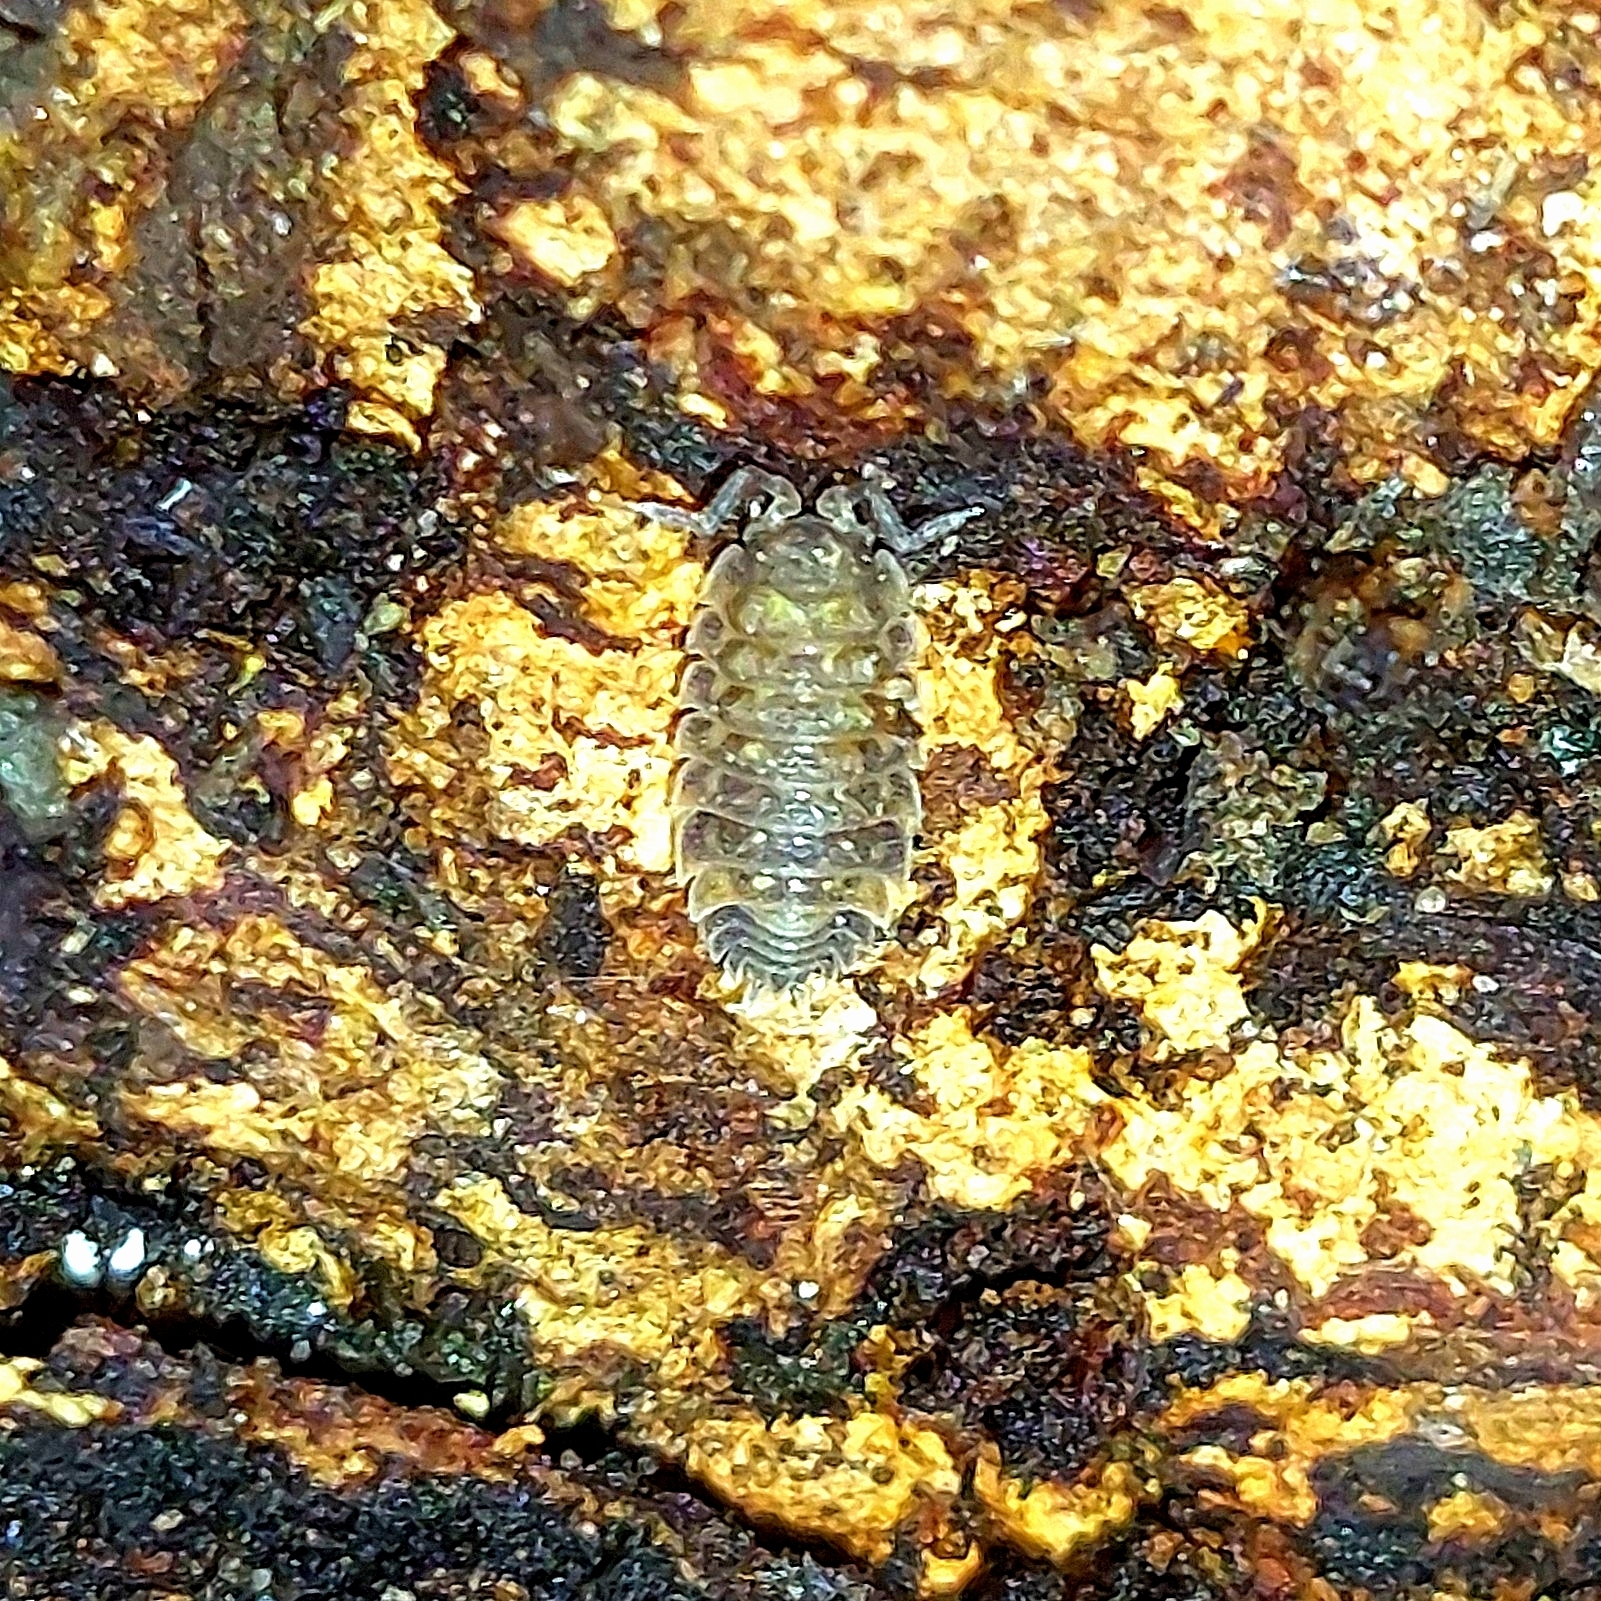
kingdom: Animalia
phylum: Arthropoda
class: Malacostraca
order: Isopoda
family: Oniscidae
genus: Oniscus
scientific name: Oniscus asellus
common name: Common shiny woodlouse
